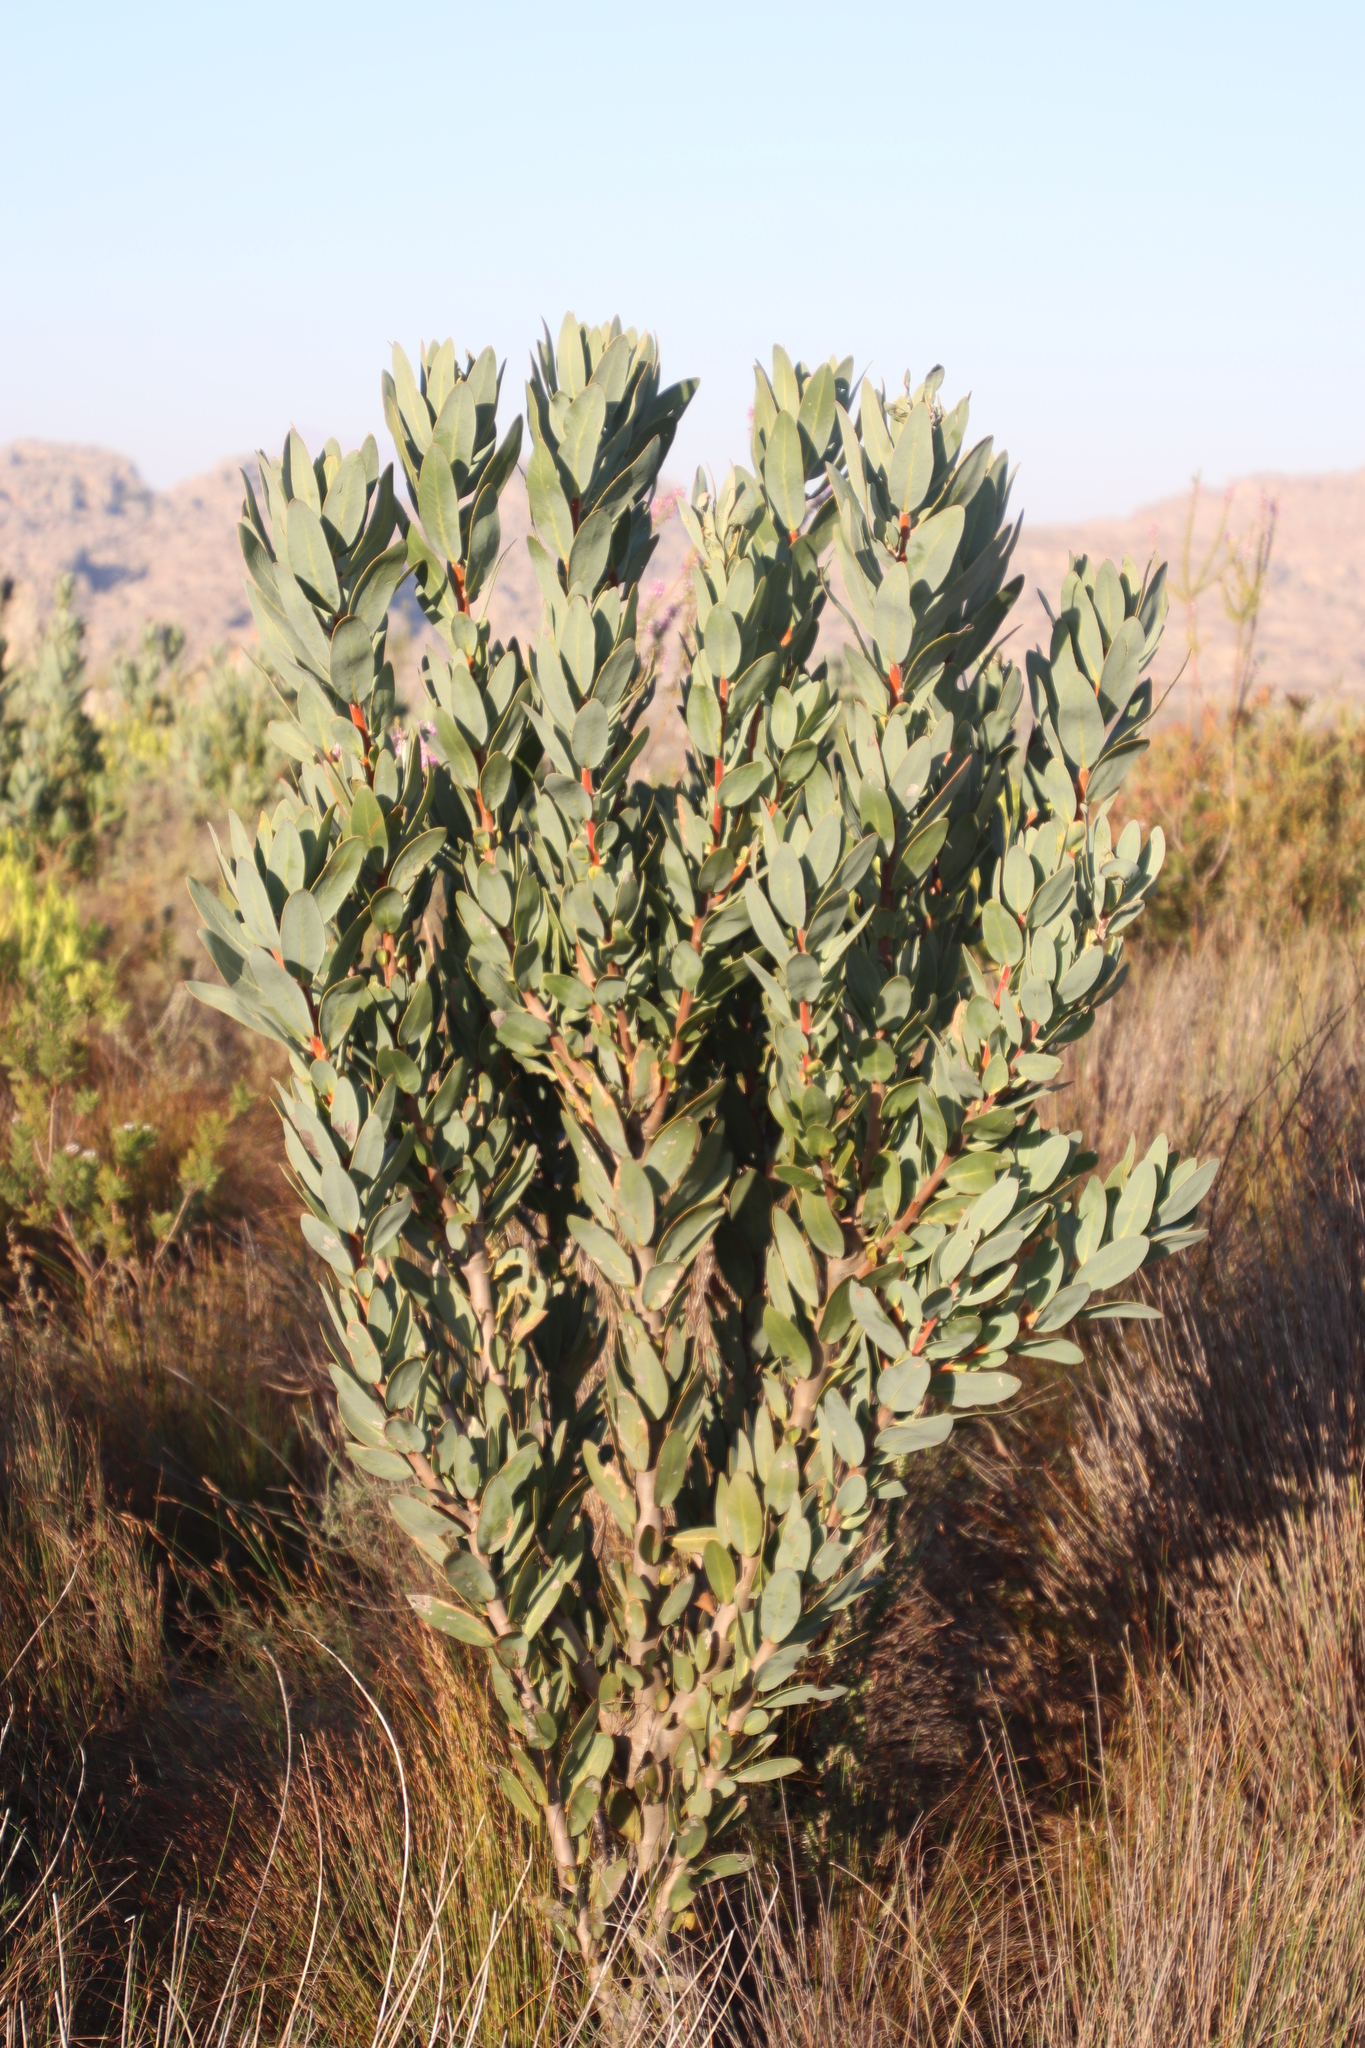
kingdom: Plantae
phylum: Tracheophyta
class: Magnoliopsida
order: Proteales
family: Proteaceae
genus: Protea
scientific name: Protea laurifolia
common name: Grey-leaf sugarbsh
